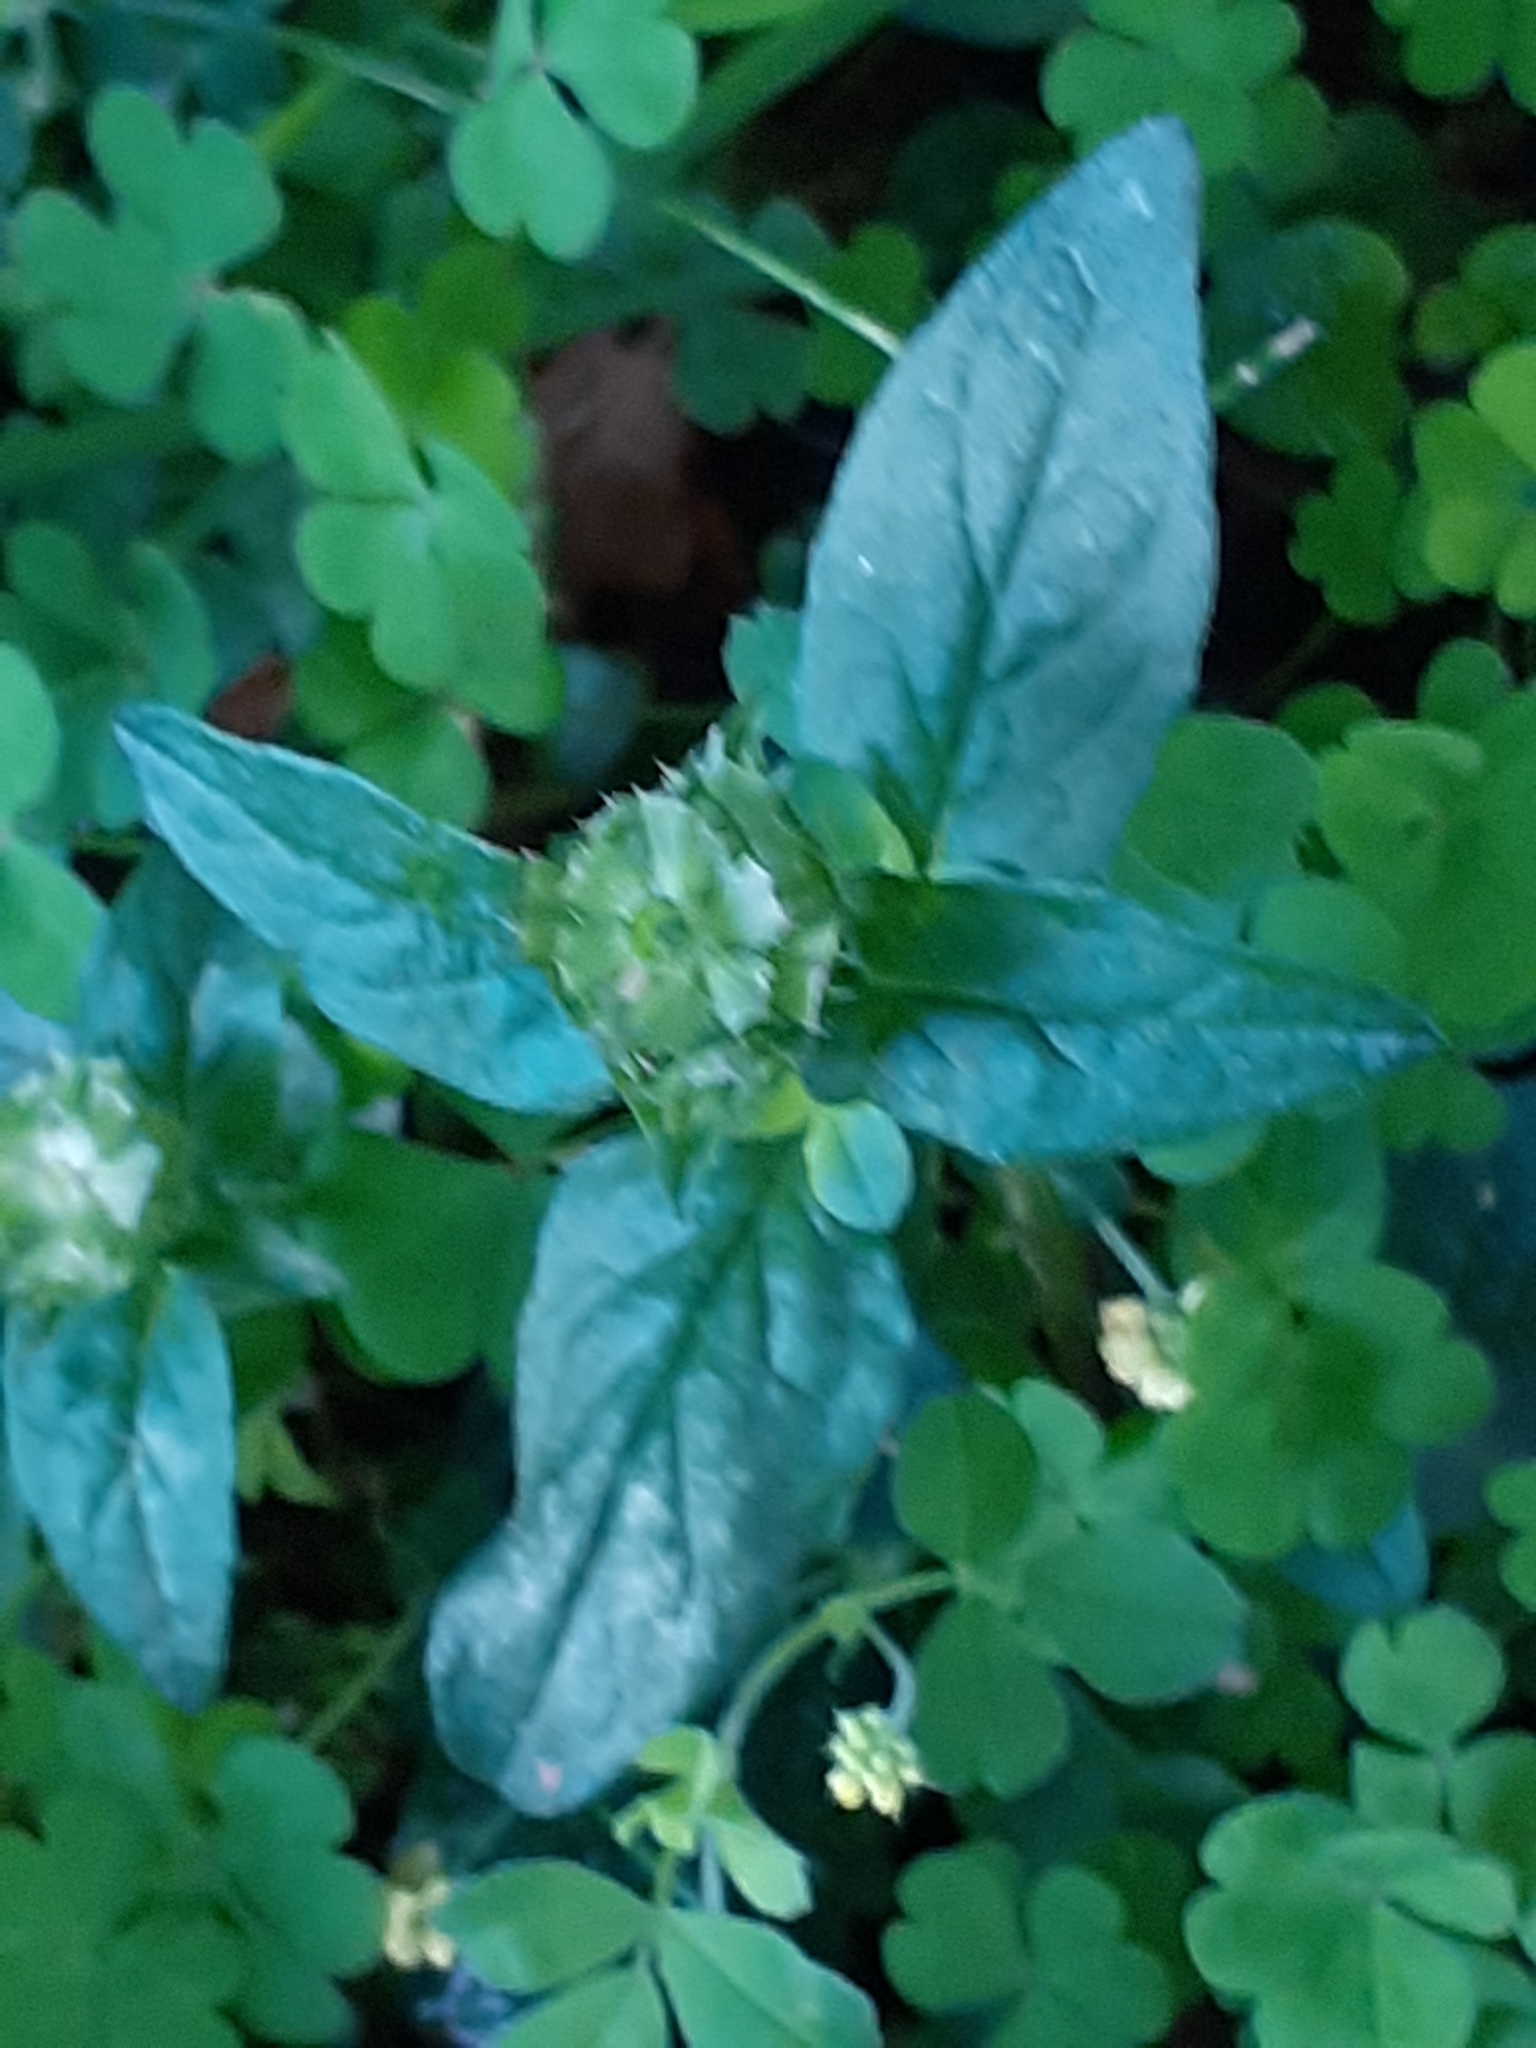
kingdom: Plantae
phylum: Tracheophyta
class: Magnoliopsida
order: Lamiales
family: Lamiaceae
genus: Prunella
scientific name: Prunella vulgaris
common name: Heal-all
